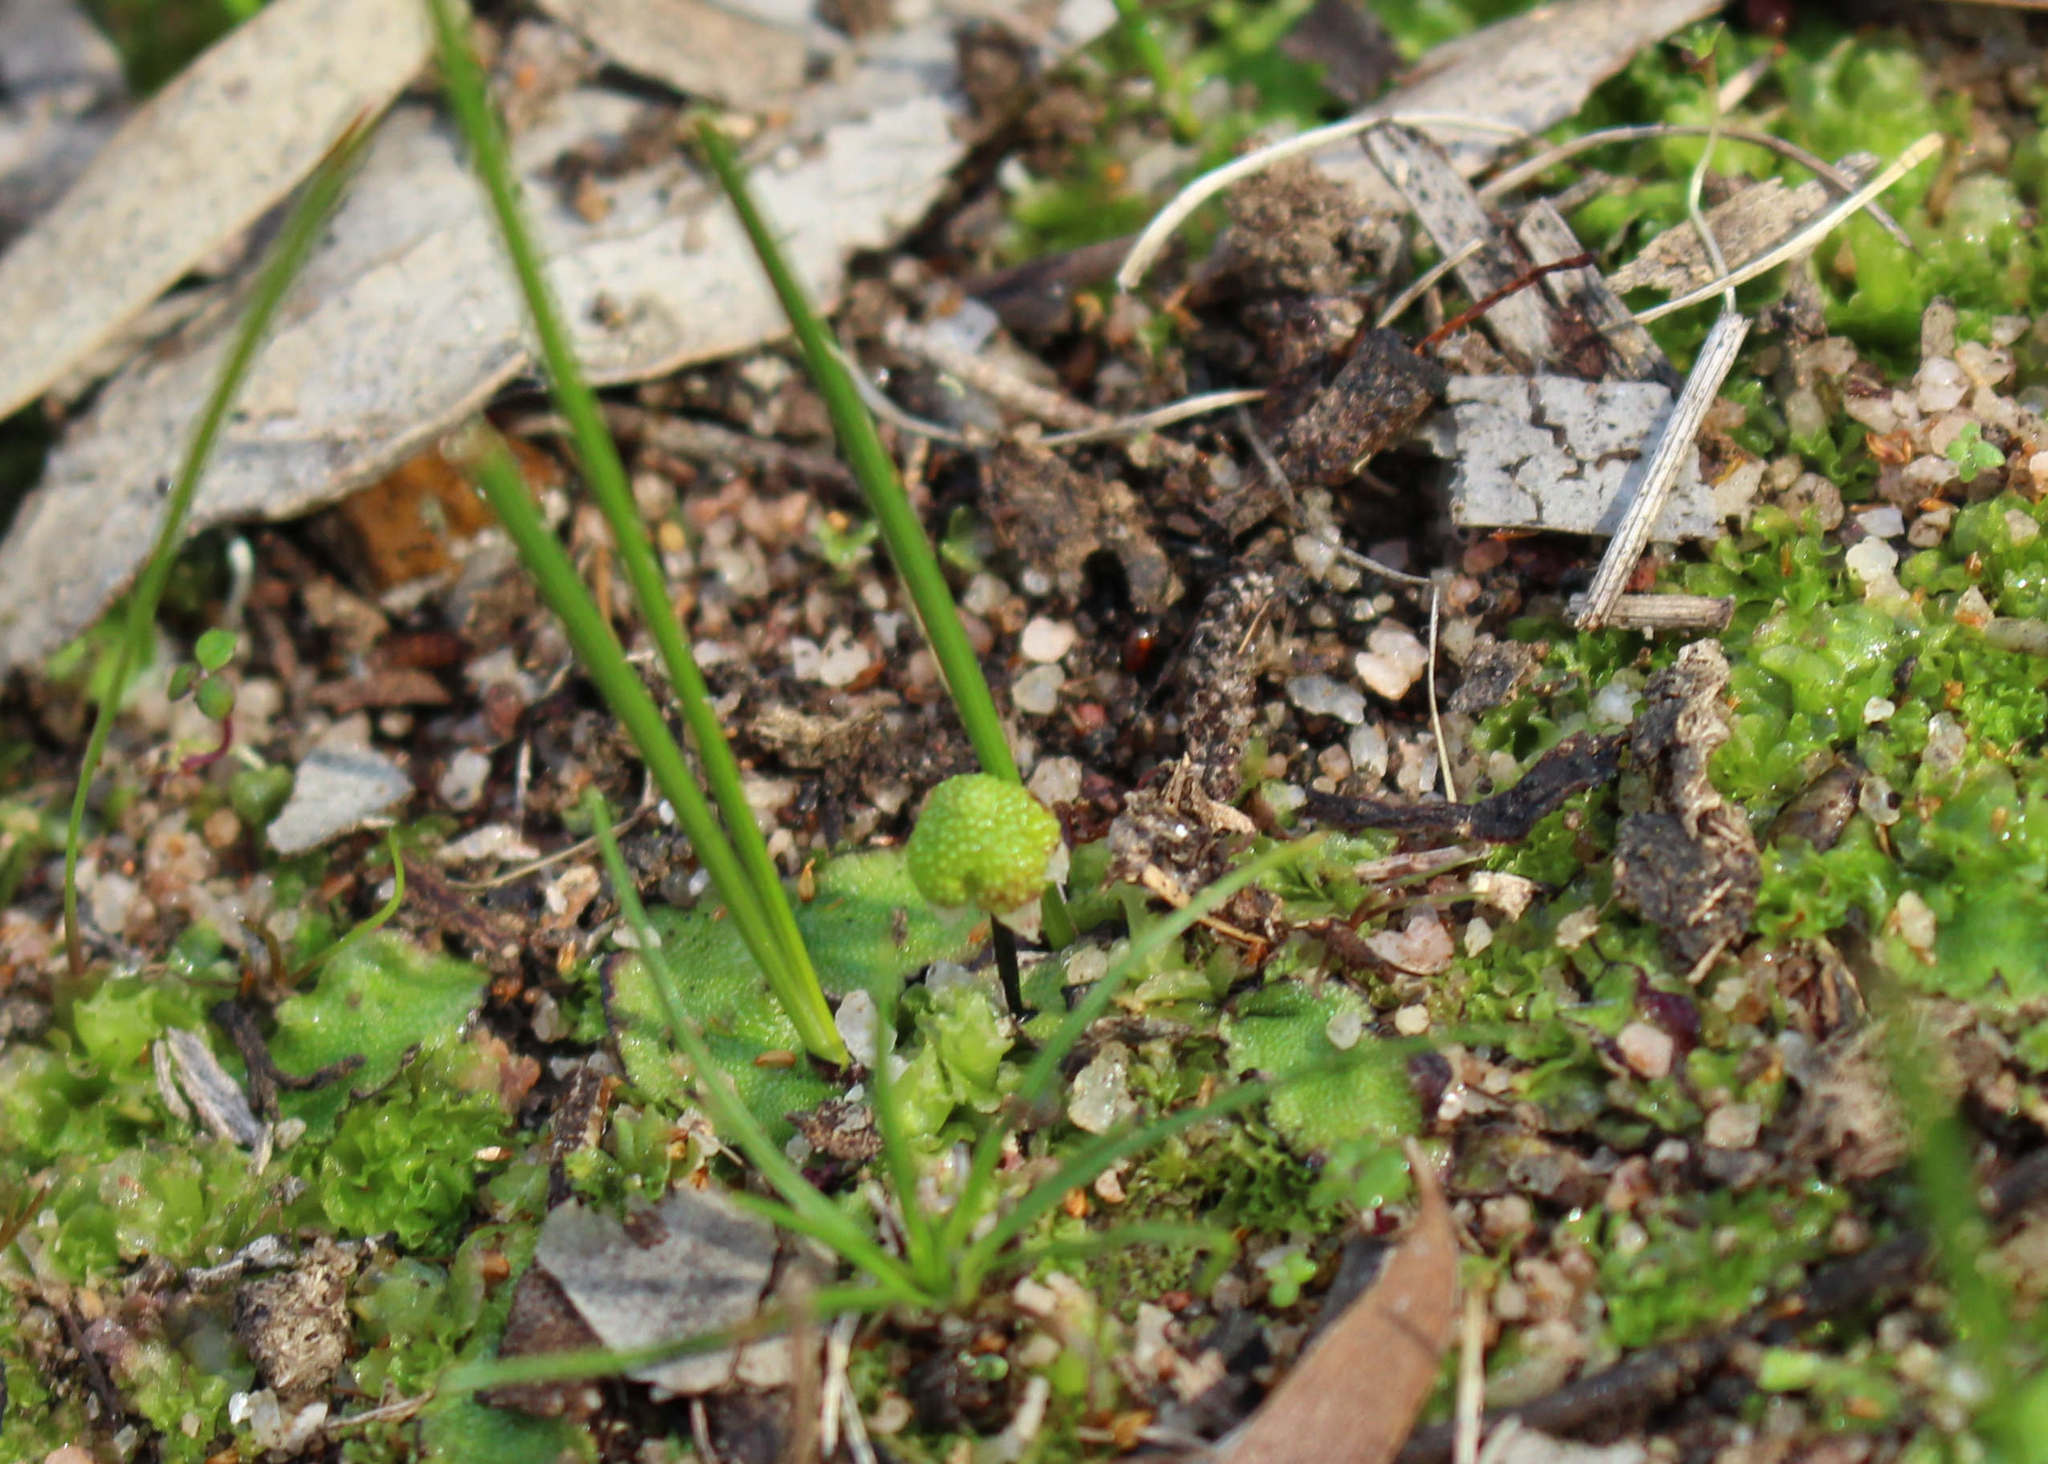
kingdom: Plantae
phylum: Marchantiophyta
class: Marchantiopsida
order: Marchantiales
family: Aytoniaceae
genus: Asterella
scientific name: Asterella drummondii
